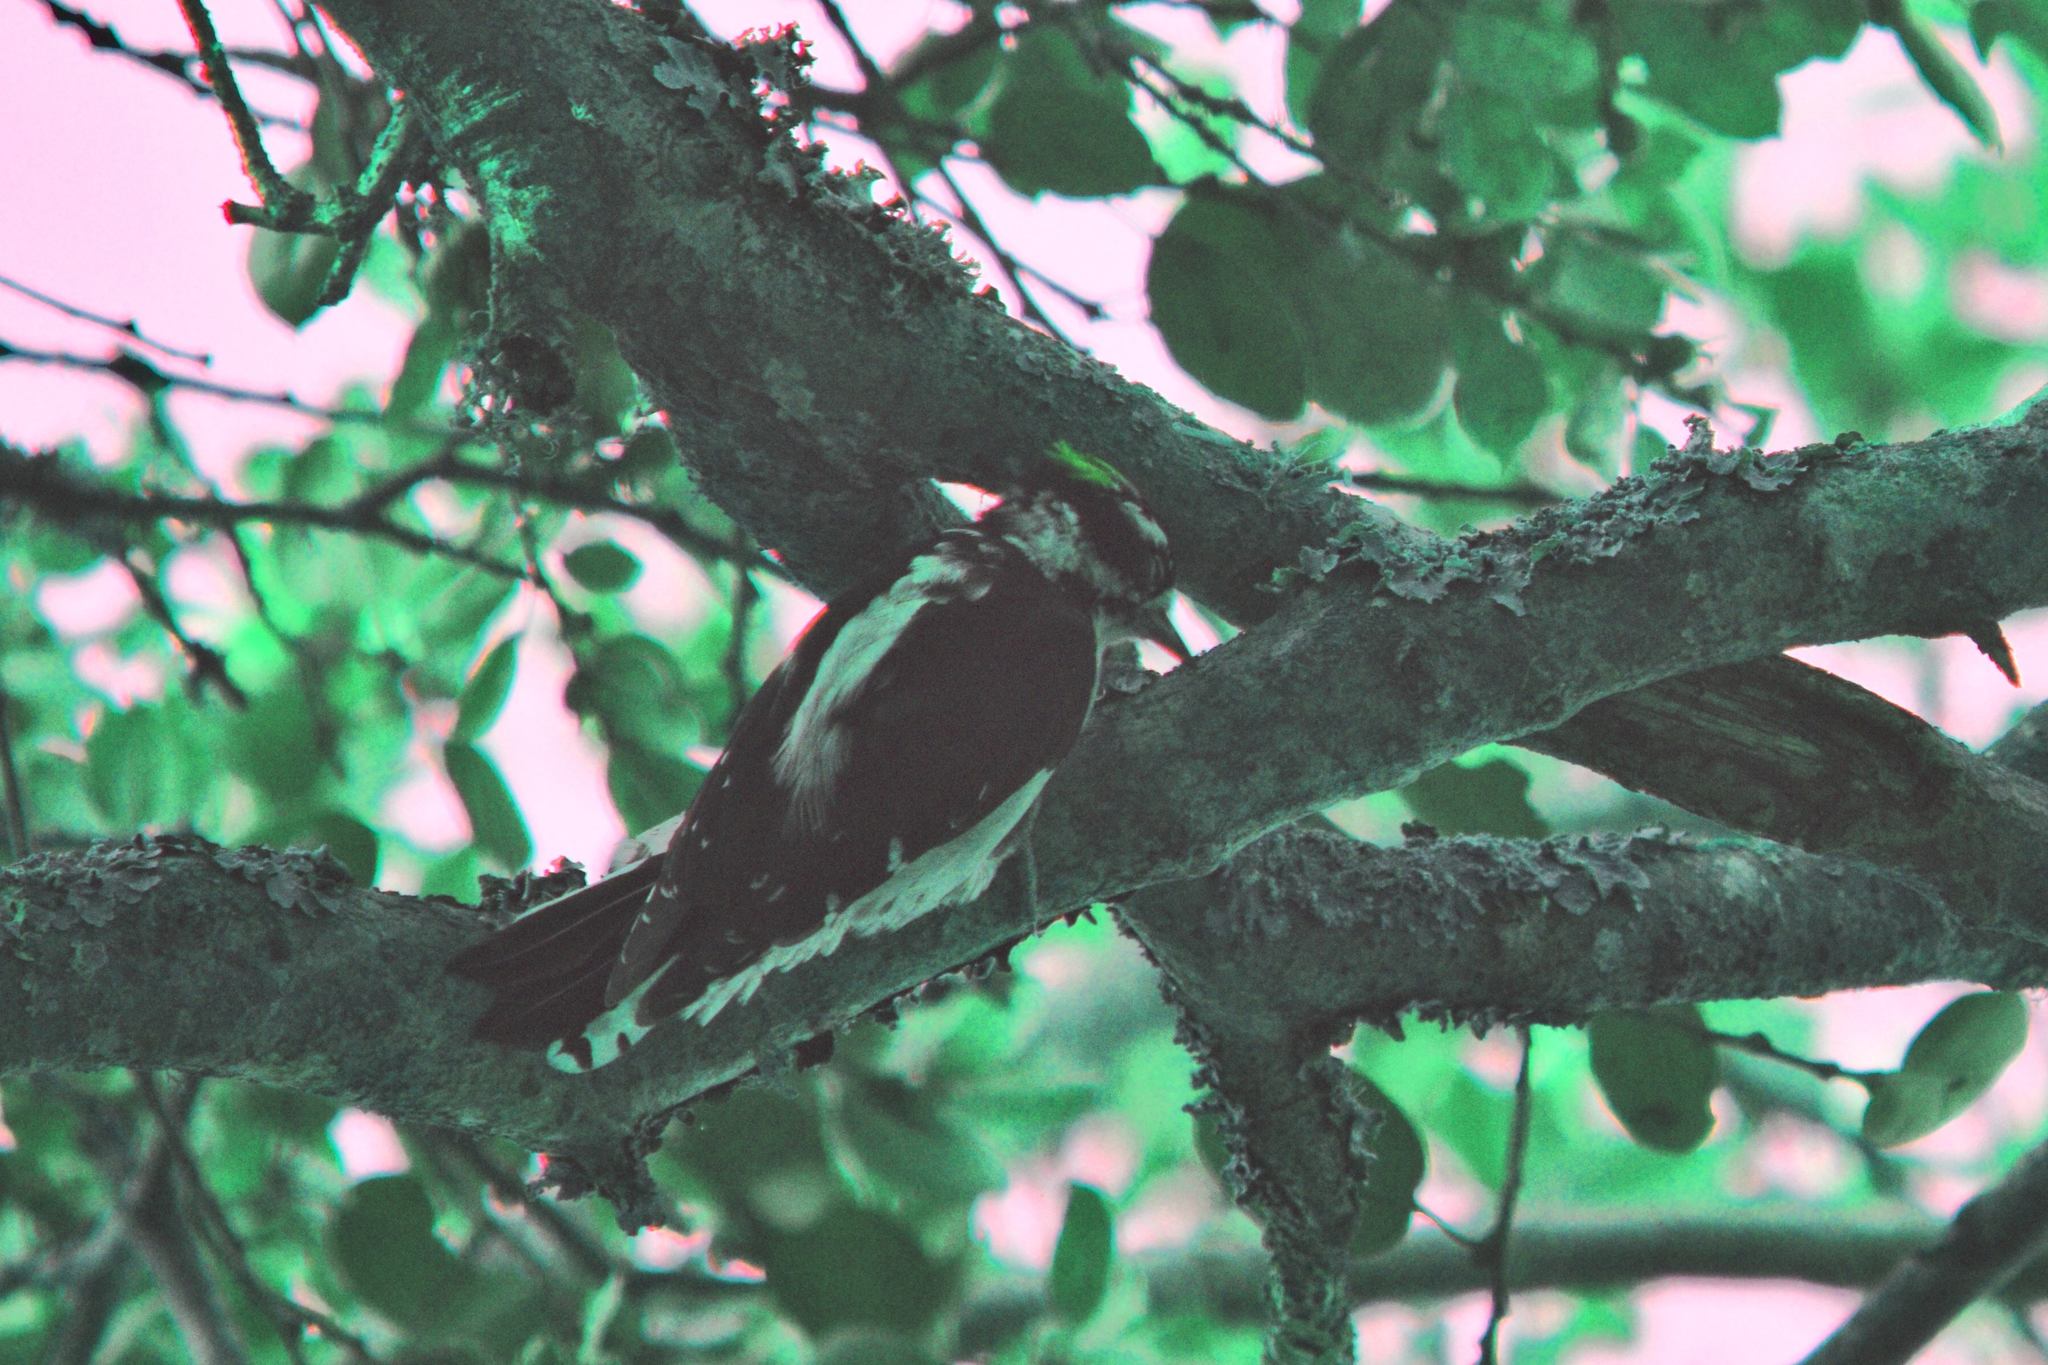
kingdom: Animalia
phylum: Chordata
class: Aves
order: Piciformes
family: Picidae
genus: Dryobates
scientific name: Dryobates pubescens
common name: Downy woodpecker
